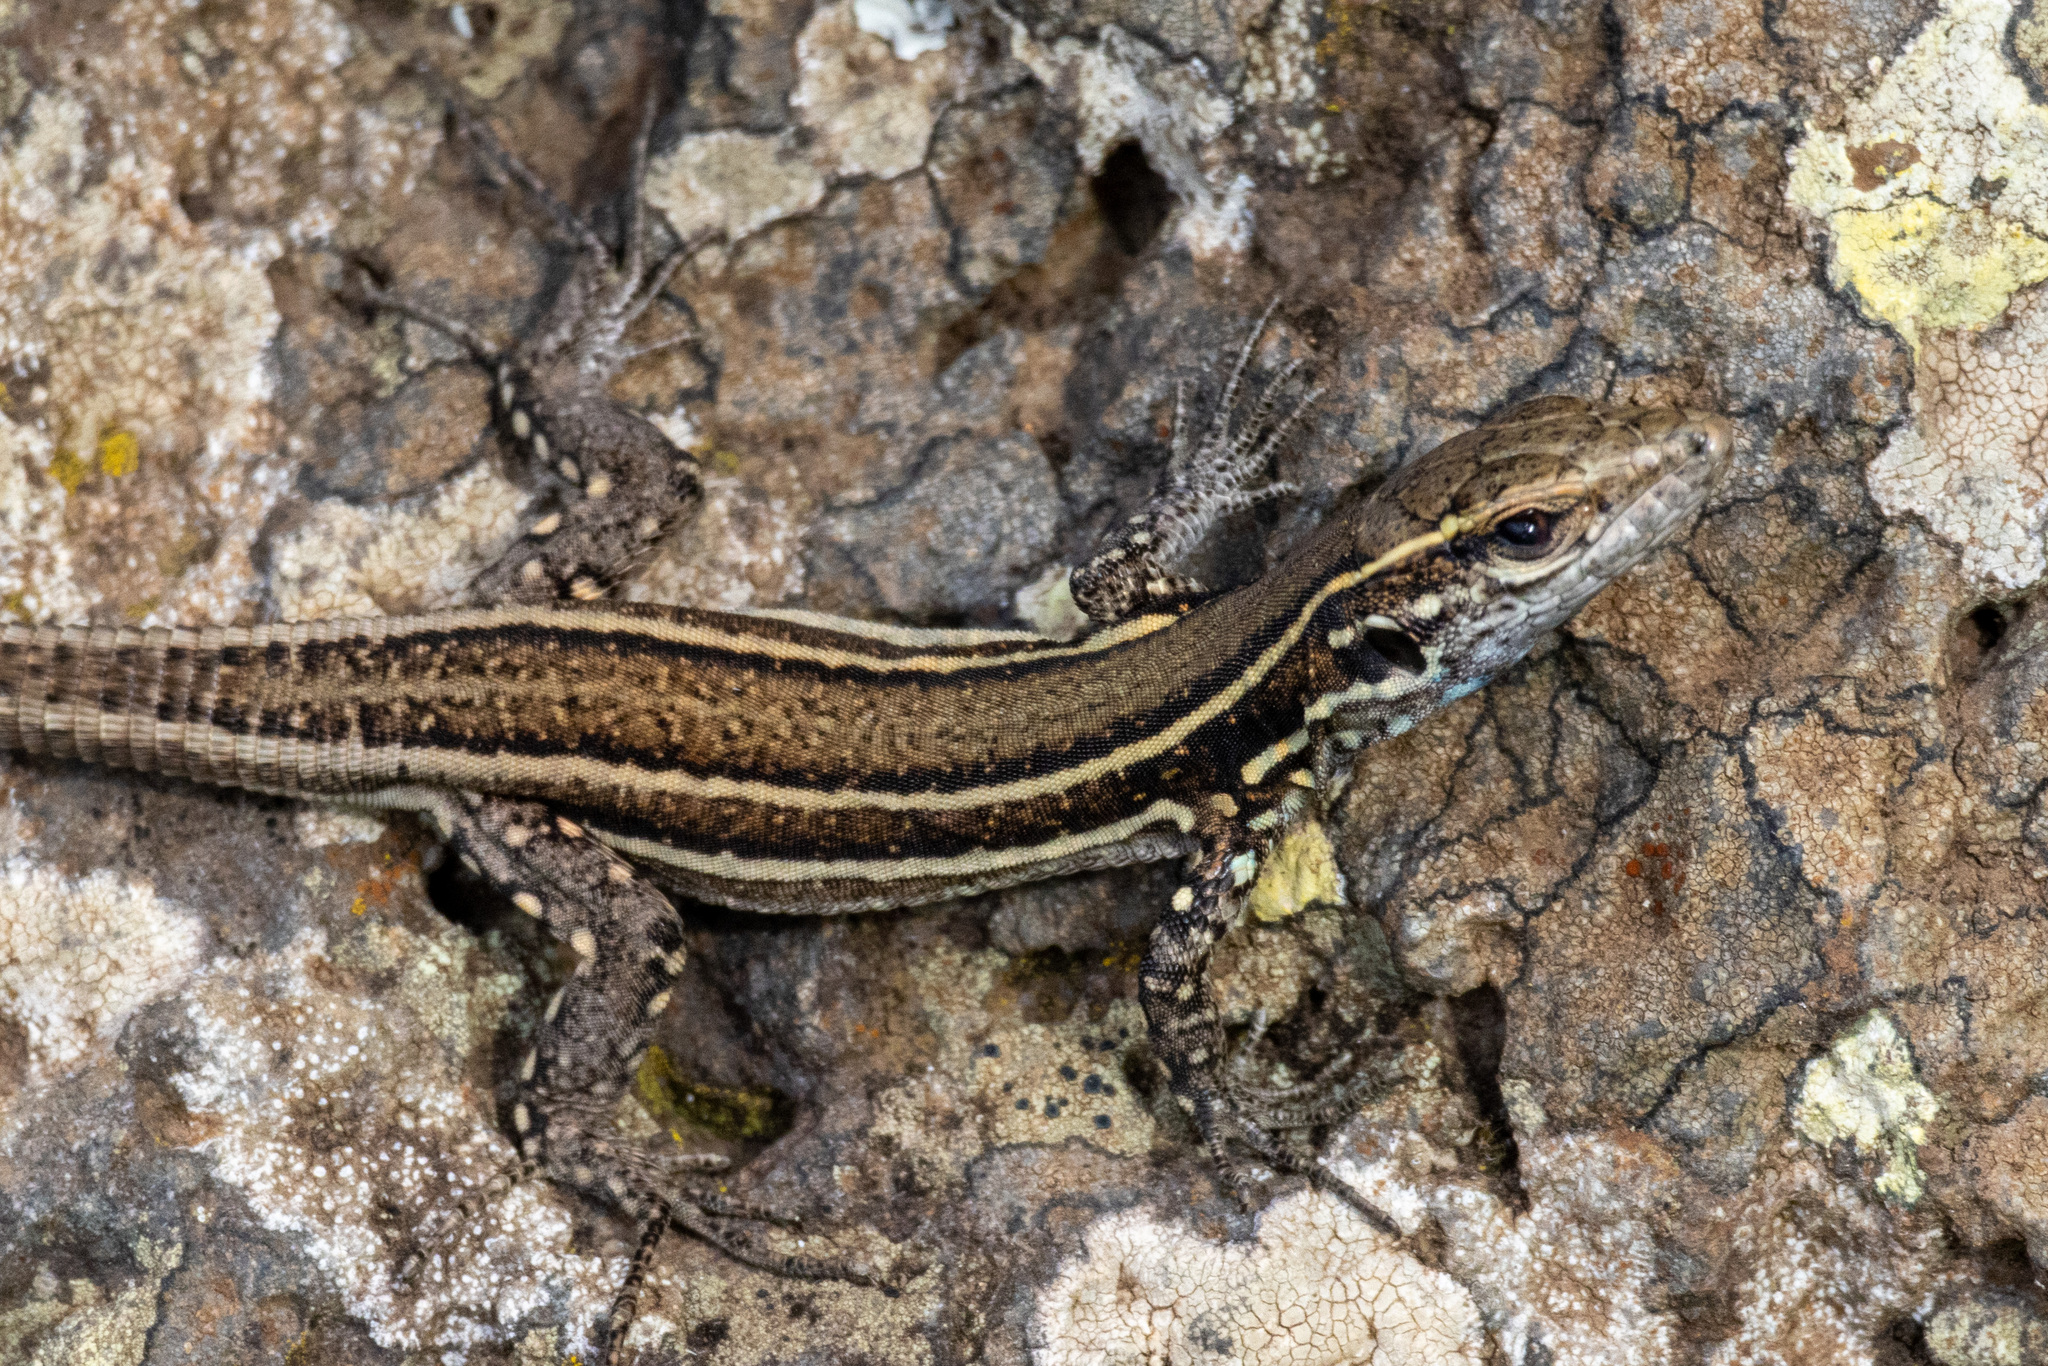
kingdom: Animalia
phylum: Chordata
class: Squamata
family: Lacertidae
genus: Gallotia
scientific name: Gallotia caesaris
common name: Boettger's lizard
